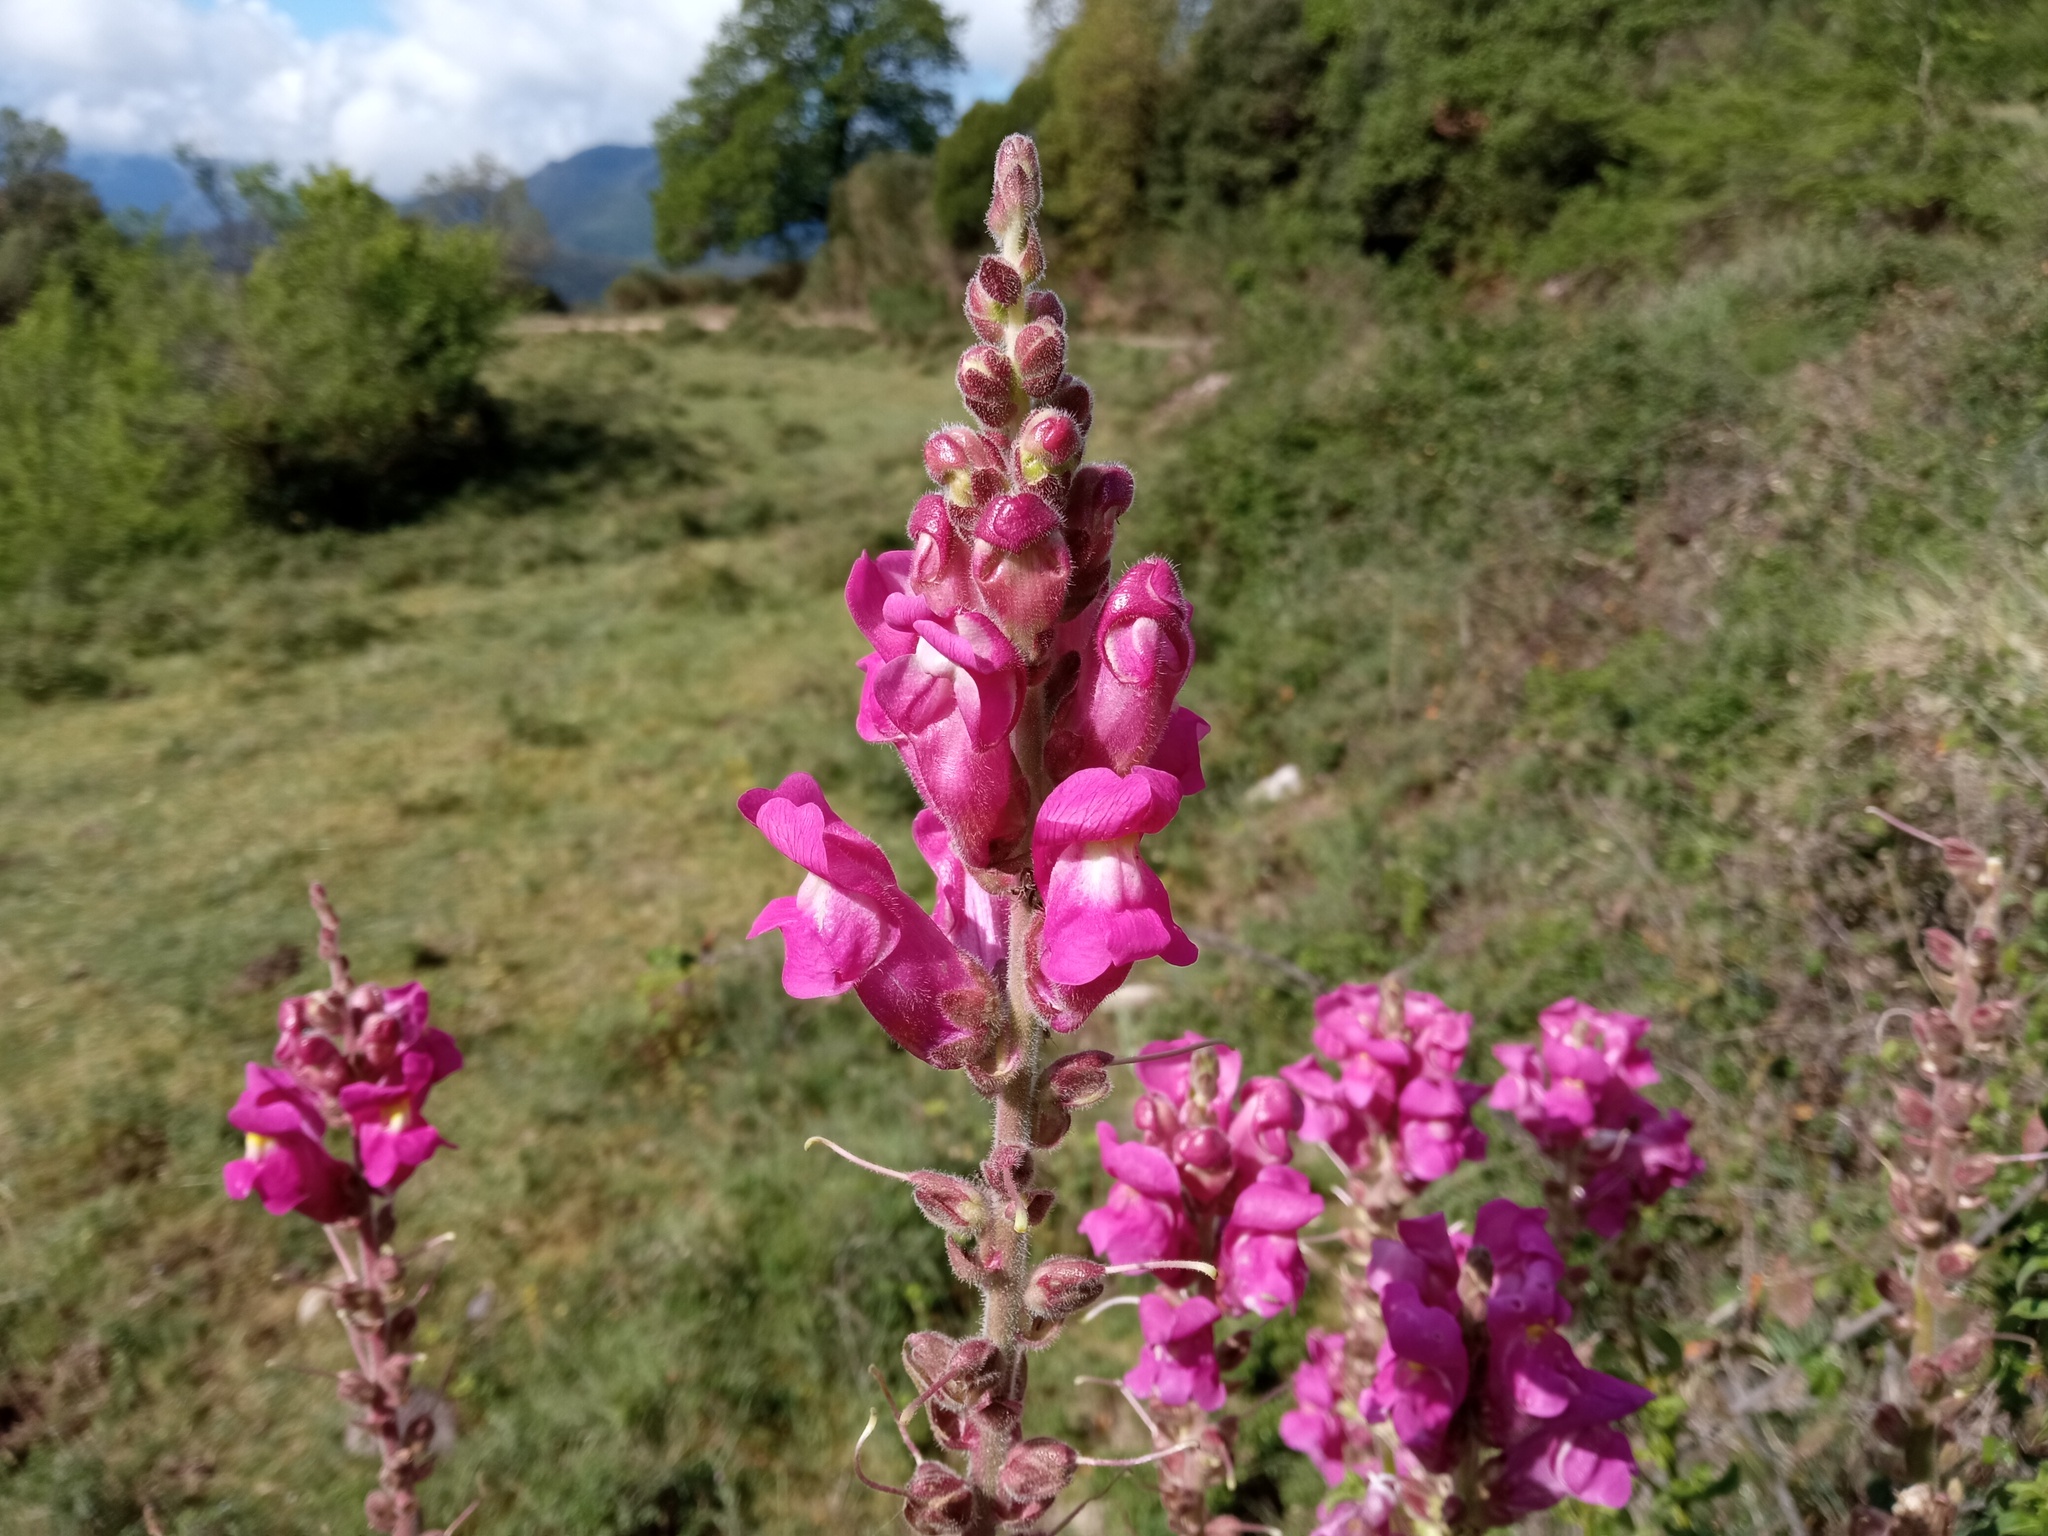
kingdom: Plantae
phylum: Tracheophyta
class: Magnoliopsida
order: Lamiales
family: Plantaginaceae
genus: Antirrhinum
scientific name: Antirrhinum majus
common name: Snapdragon
